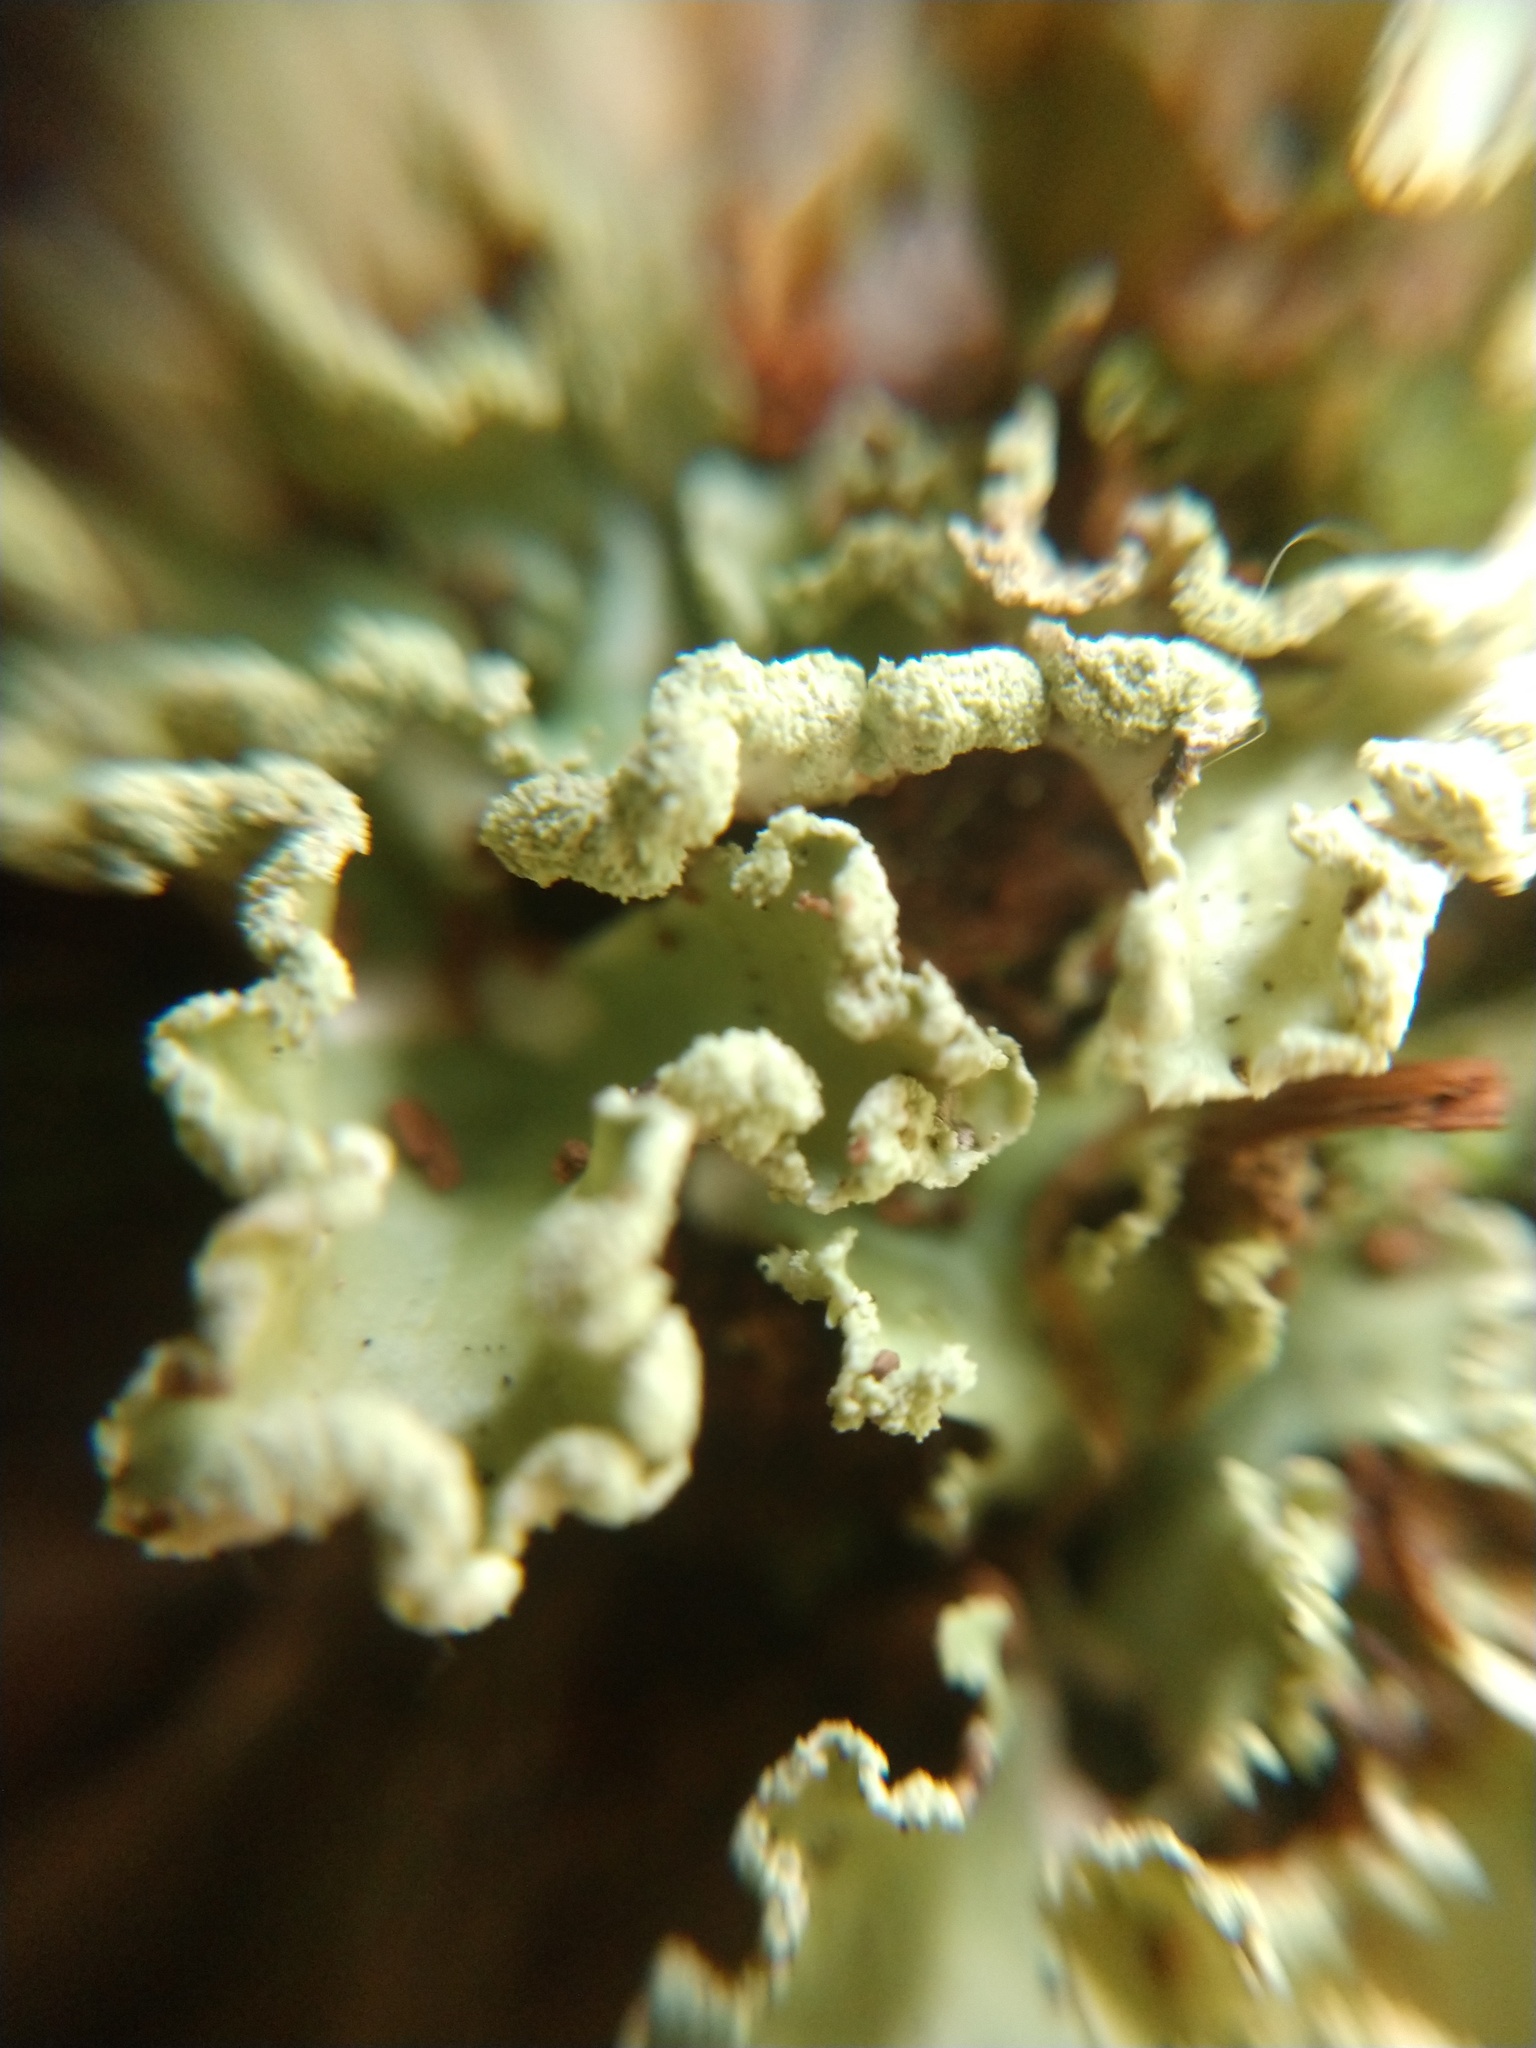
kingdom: Fungi
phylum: Ascomycota
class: Lecanoromycetes
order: Lecanorales
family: Parmeliaceae
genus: Usnocetraria
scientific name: Usnocetraria oakesiana
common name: Yellow ribbon lichen
